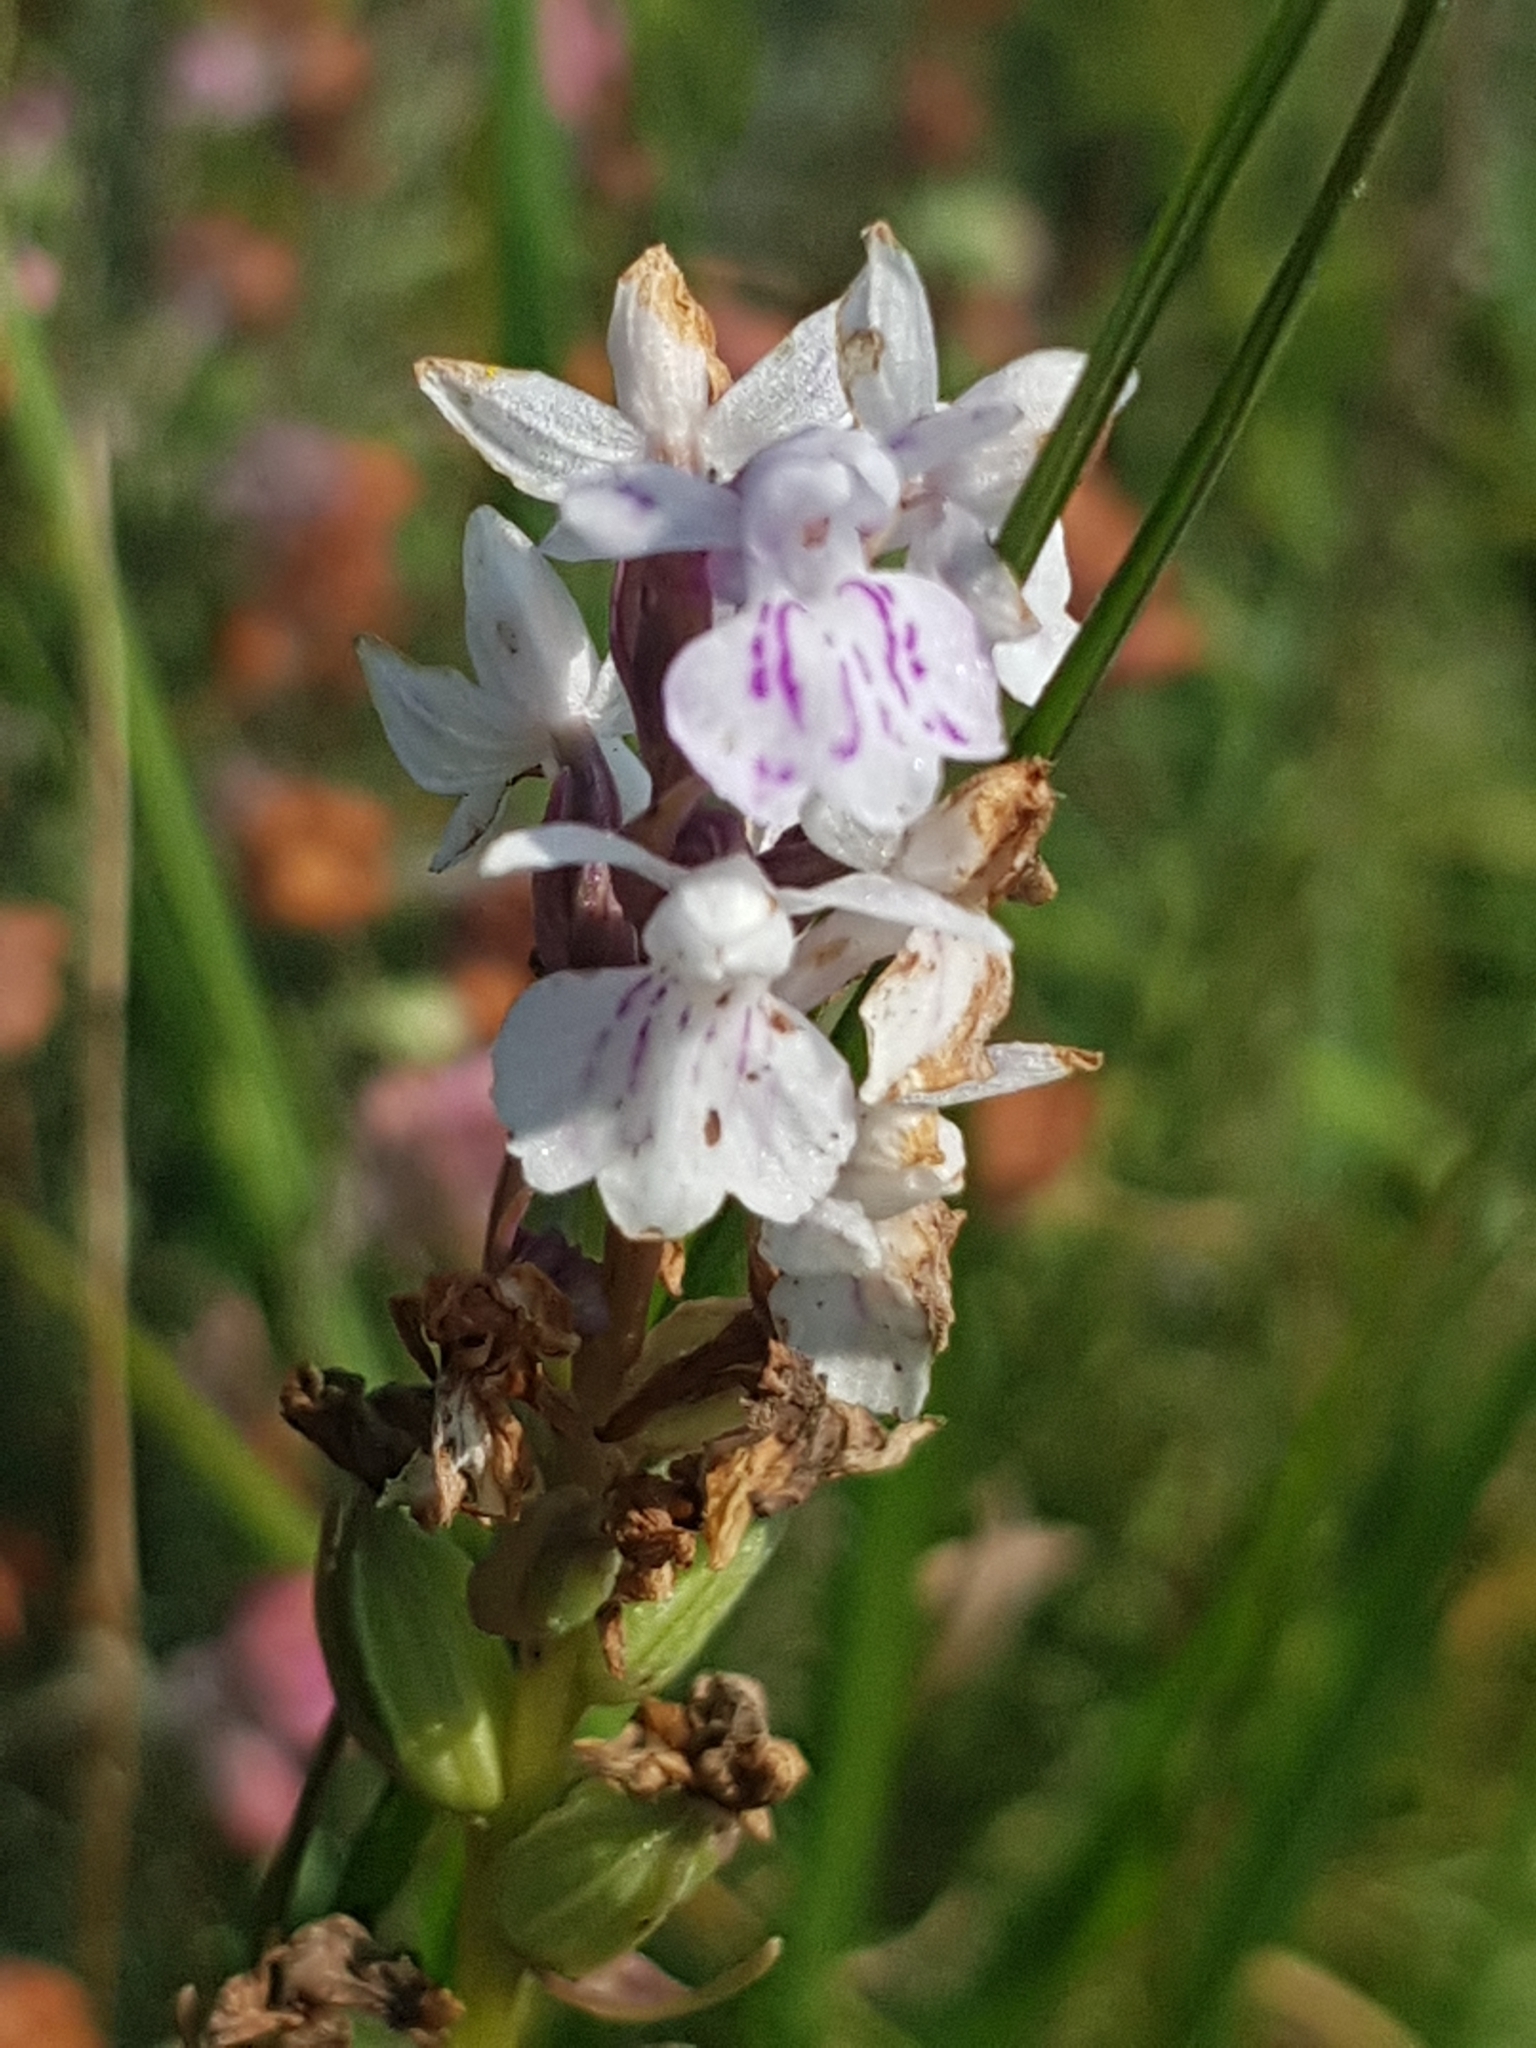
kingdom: Plantae
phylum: Tracheophyta
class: Liliopsida
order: Asparagales
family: Orchidaceae
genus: Dactylorhiza
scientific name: Dactylorhiza maculata
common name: Heath spotted-orchid
